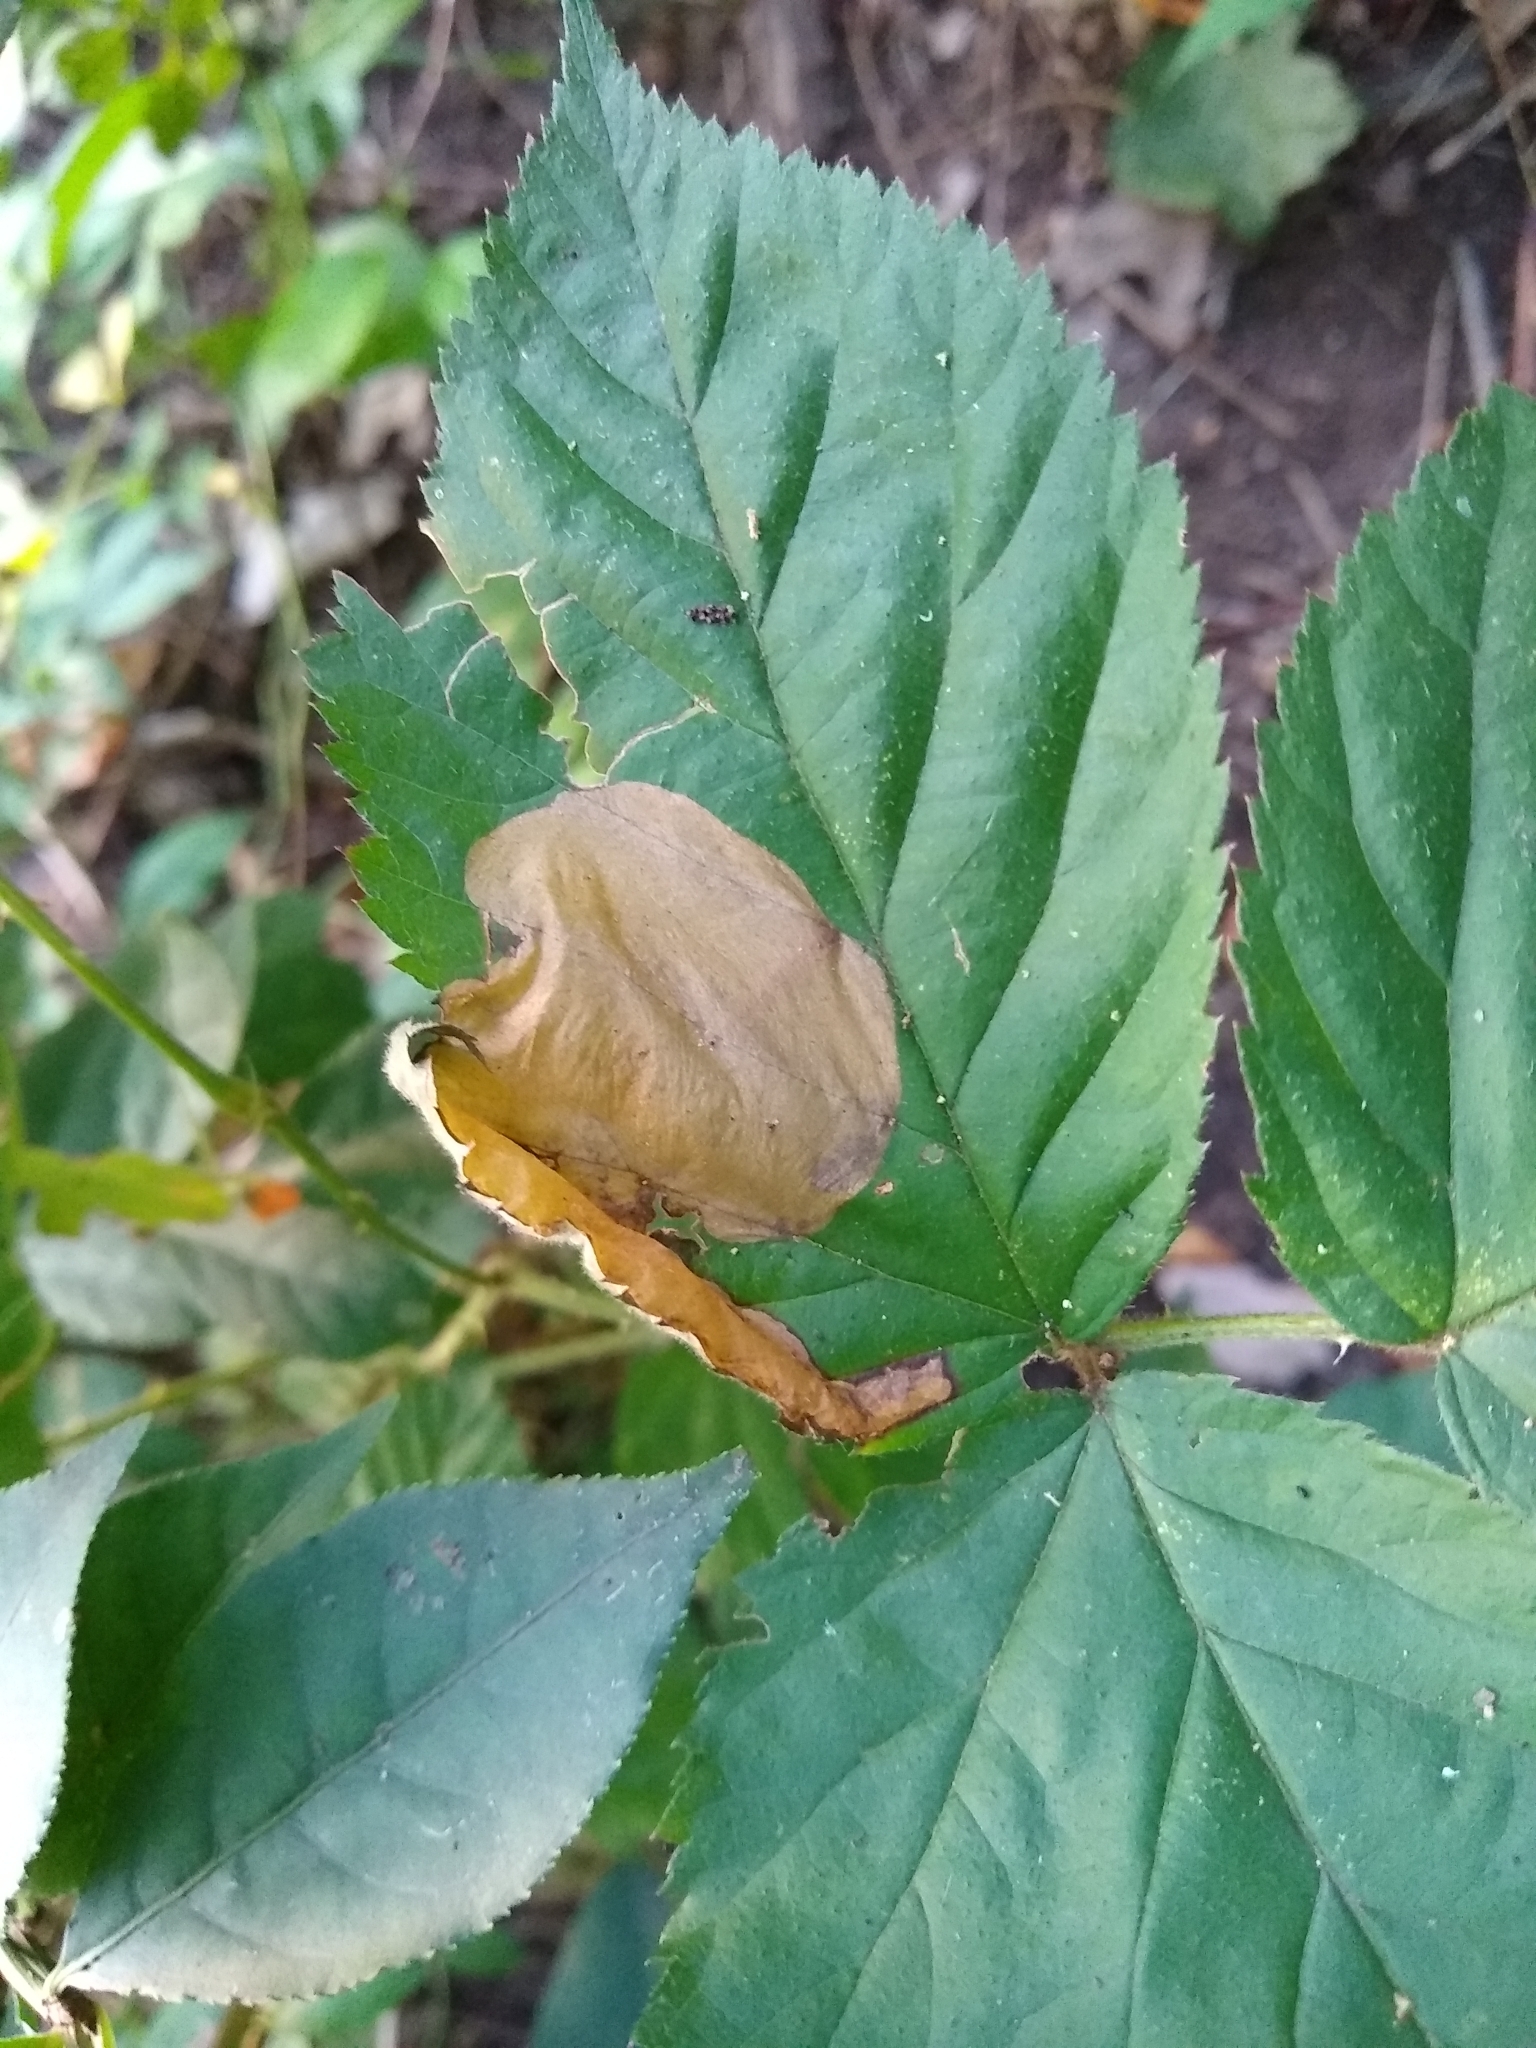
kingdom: Animalia
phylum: Arthropoda
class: Insecta
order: Hymenoptera
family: Tenthredinidae
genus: Metallus
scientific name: Metallus rohweri
